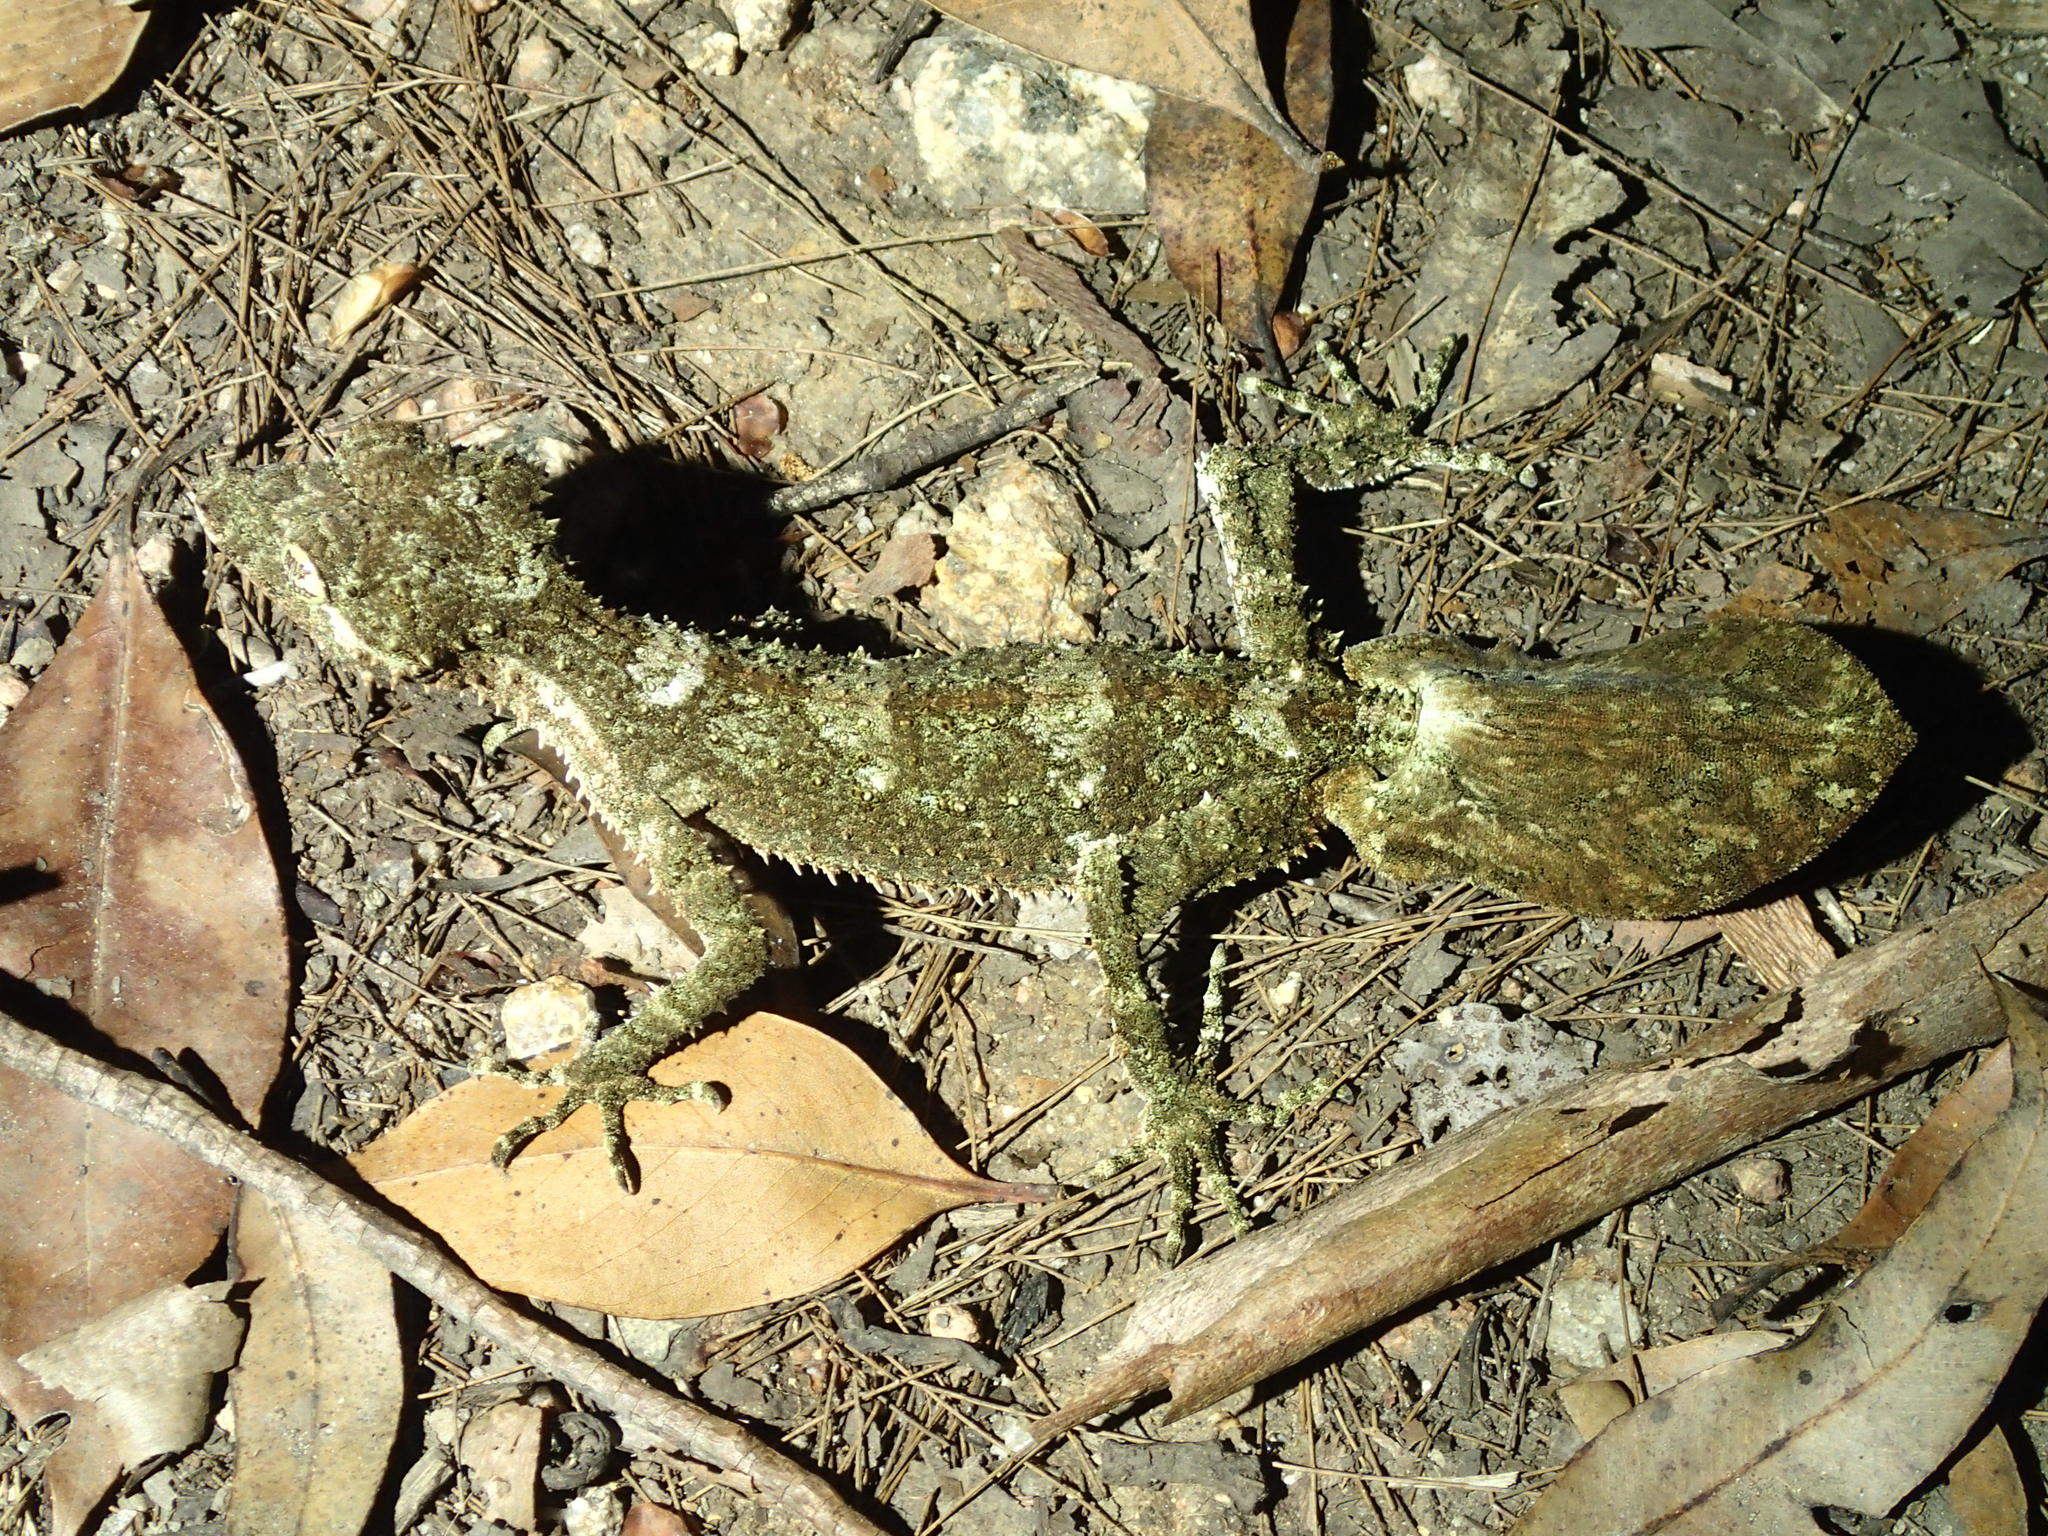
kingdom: Animalia
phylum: Chordata
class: Squamata
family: Carphodactylidae
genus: Saltuarius
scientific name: Saltuarius cornutus
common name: Leaf-tailed gecko
